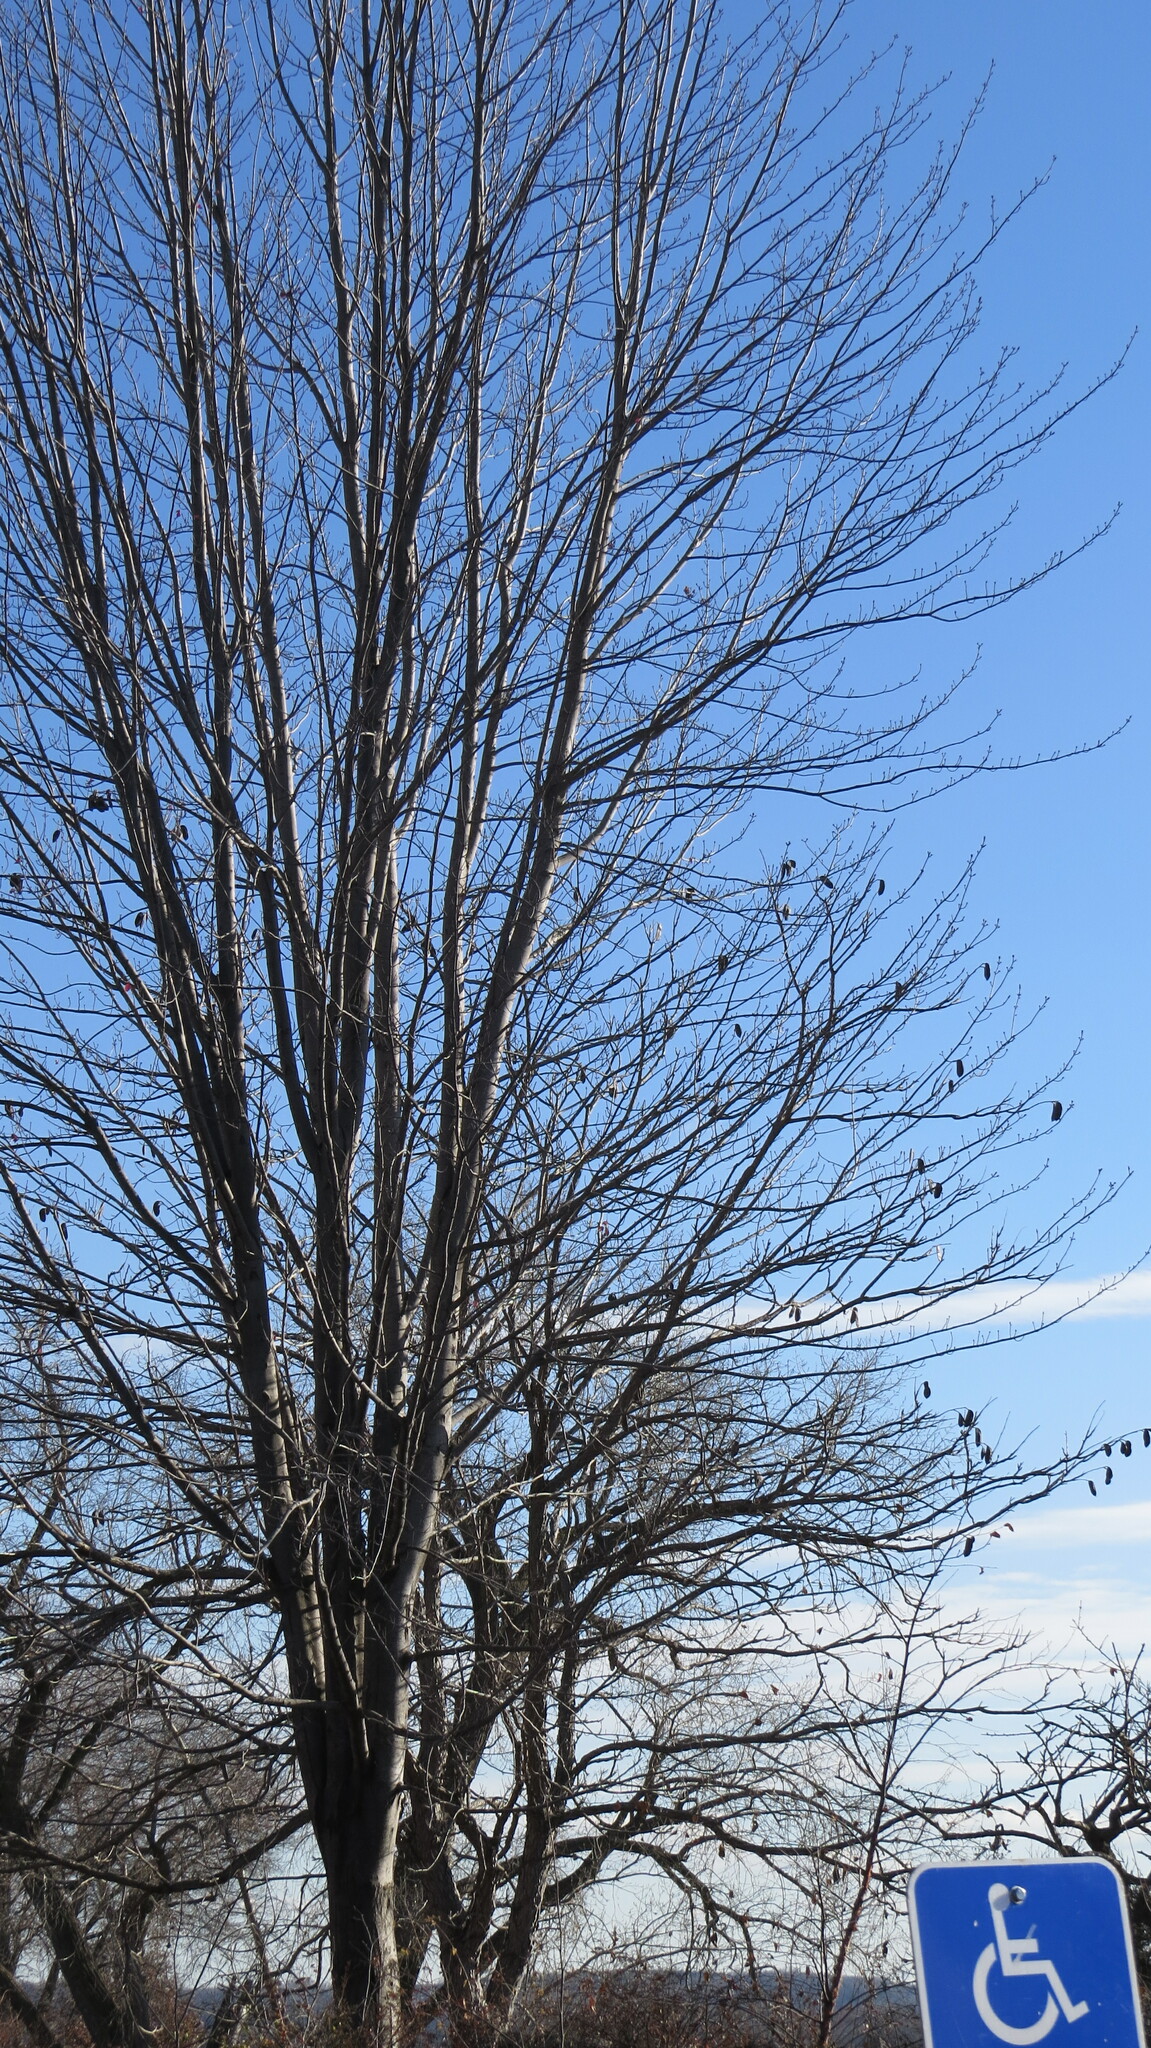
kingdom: Plantae
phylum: Tracheophyta
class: Magnoliopsida
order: Fabales
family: Fabaceae
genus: Gymnocladus
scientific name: Gymnocladus dioicus
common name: Kentucky coffee-tree
